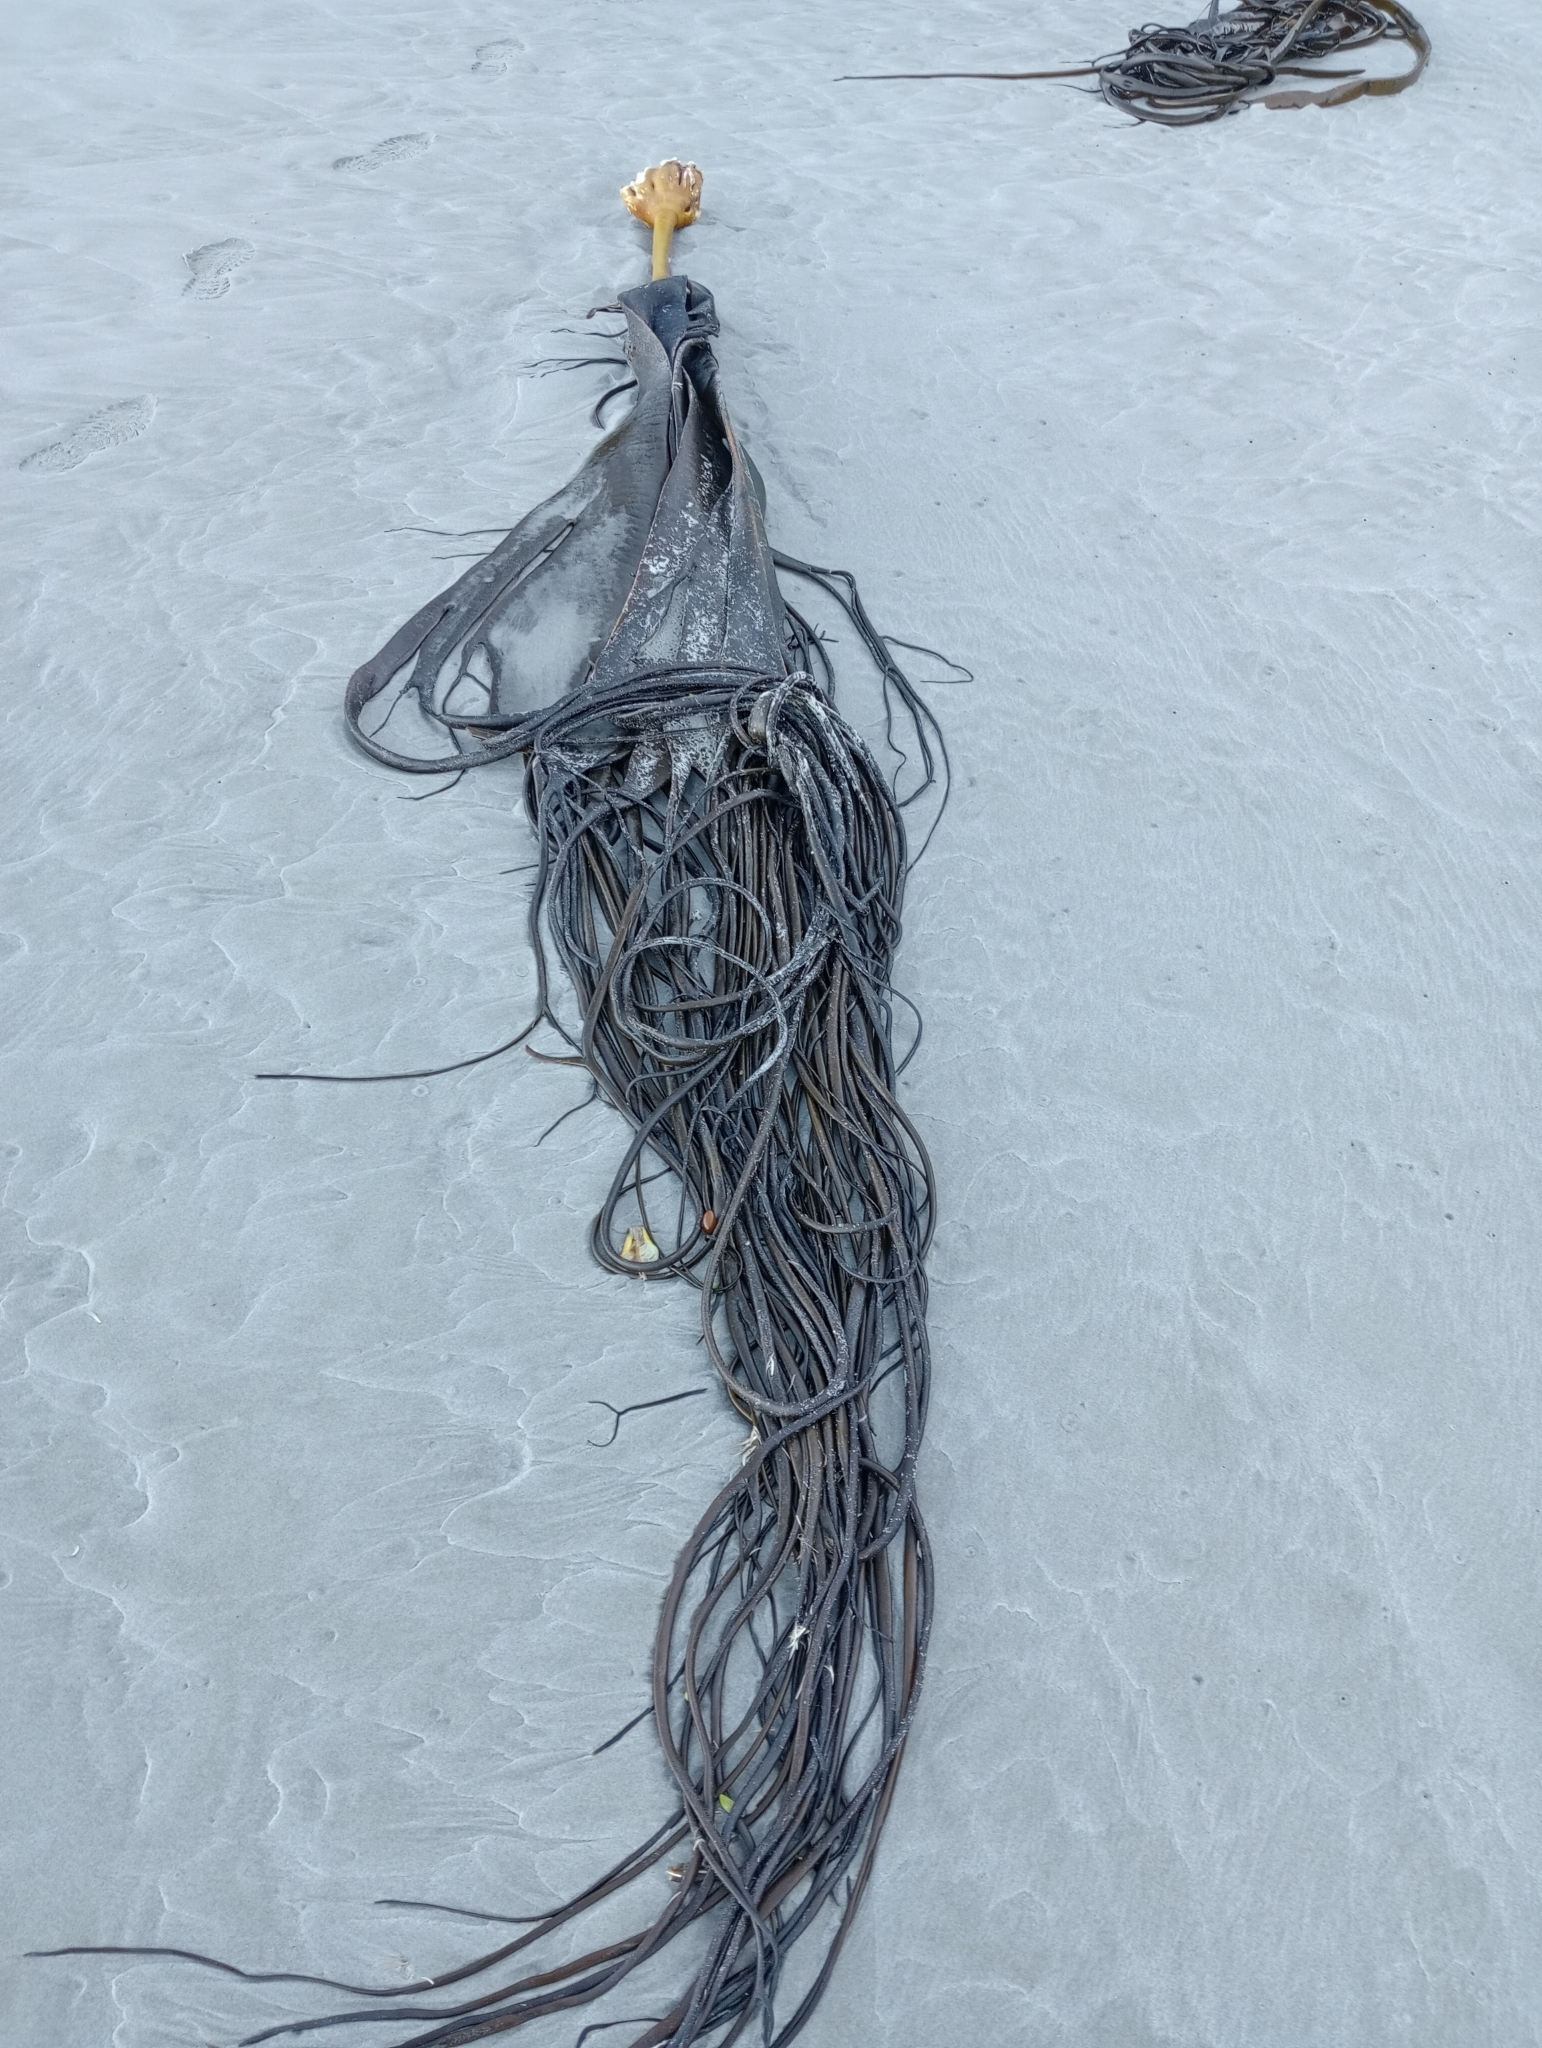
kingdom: Chromista
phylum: Ochrophyta
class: Phaeophyceae
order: Fucales
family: Durvillaeaceae
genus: Durvillaea
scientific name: Durvillaea antarctica
